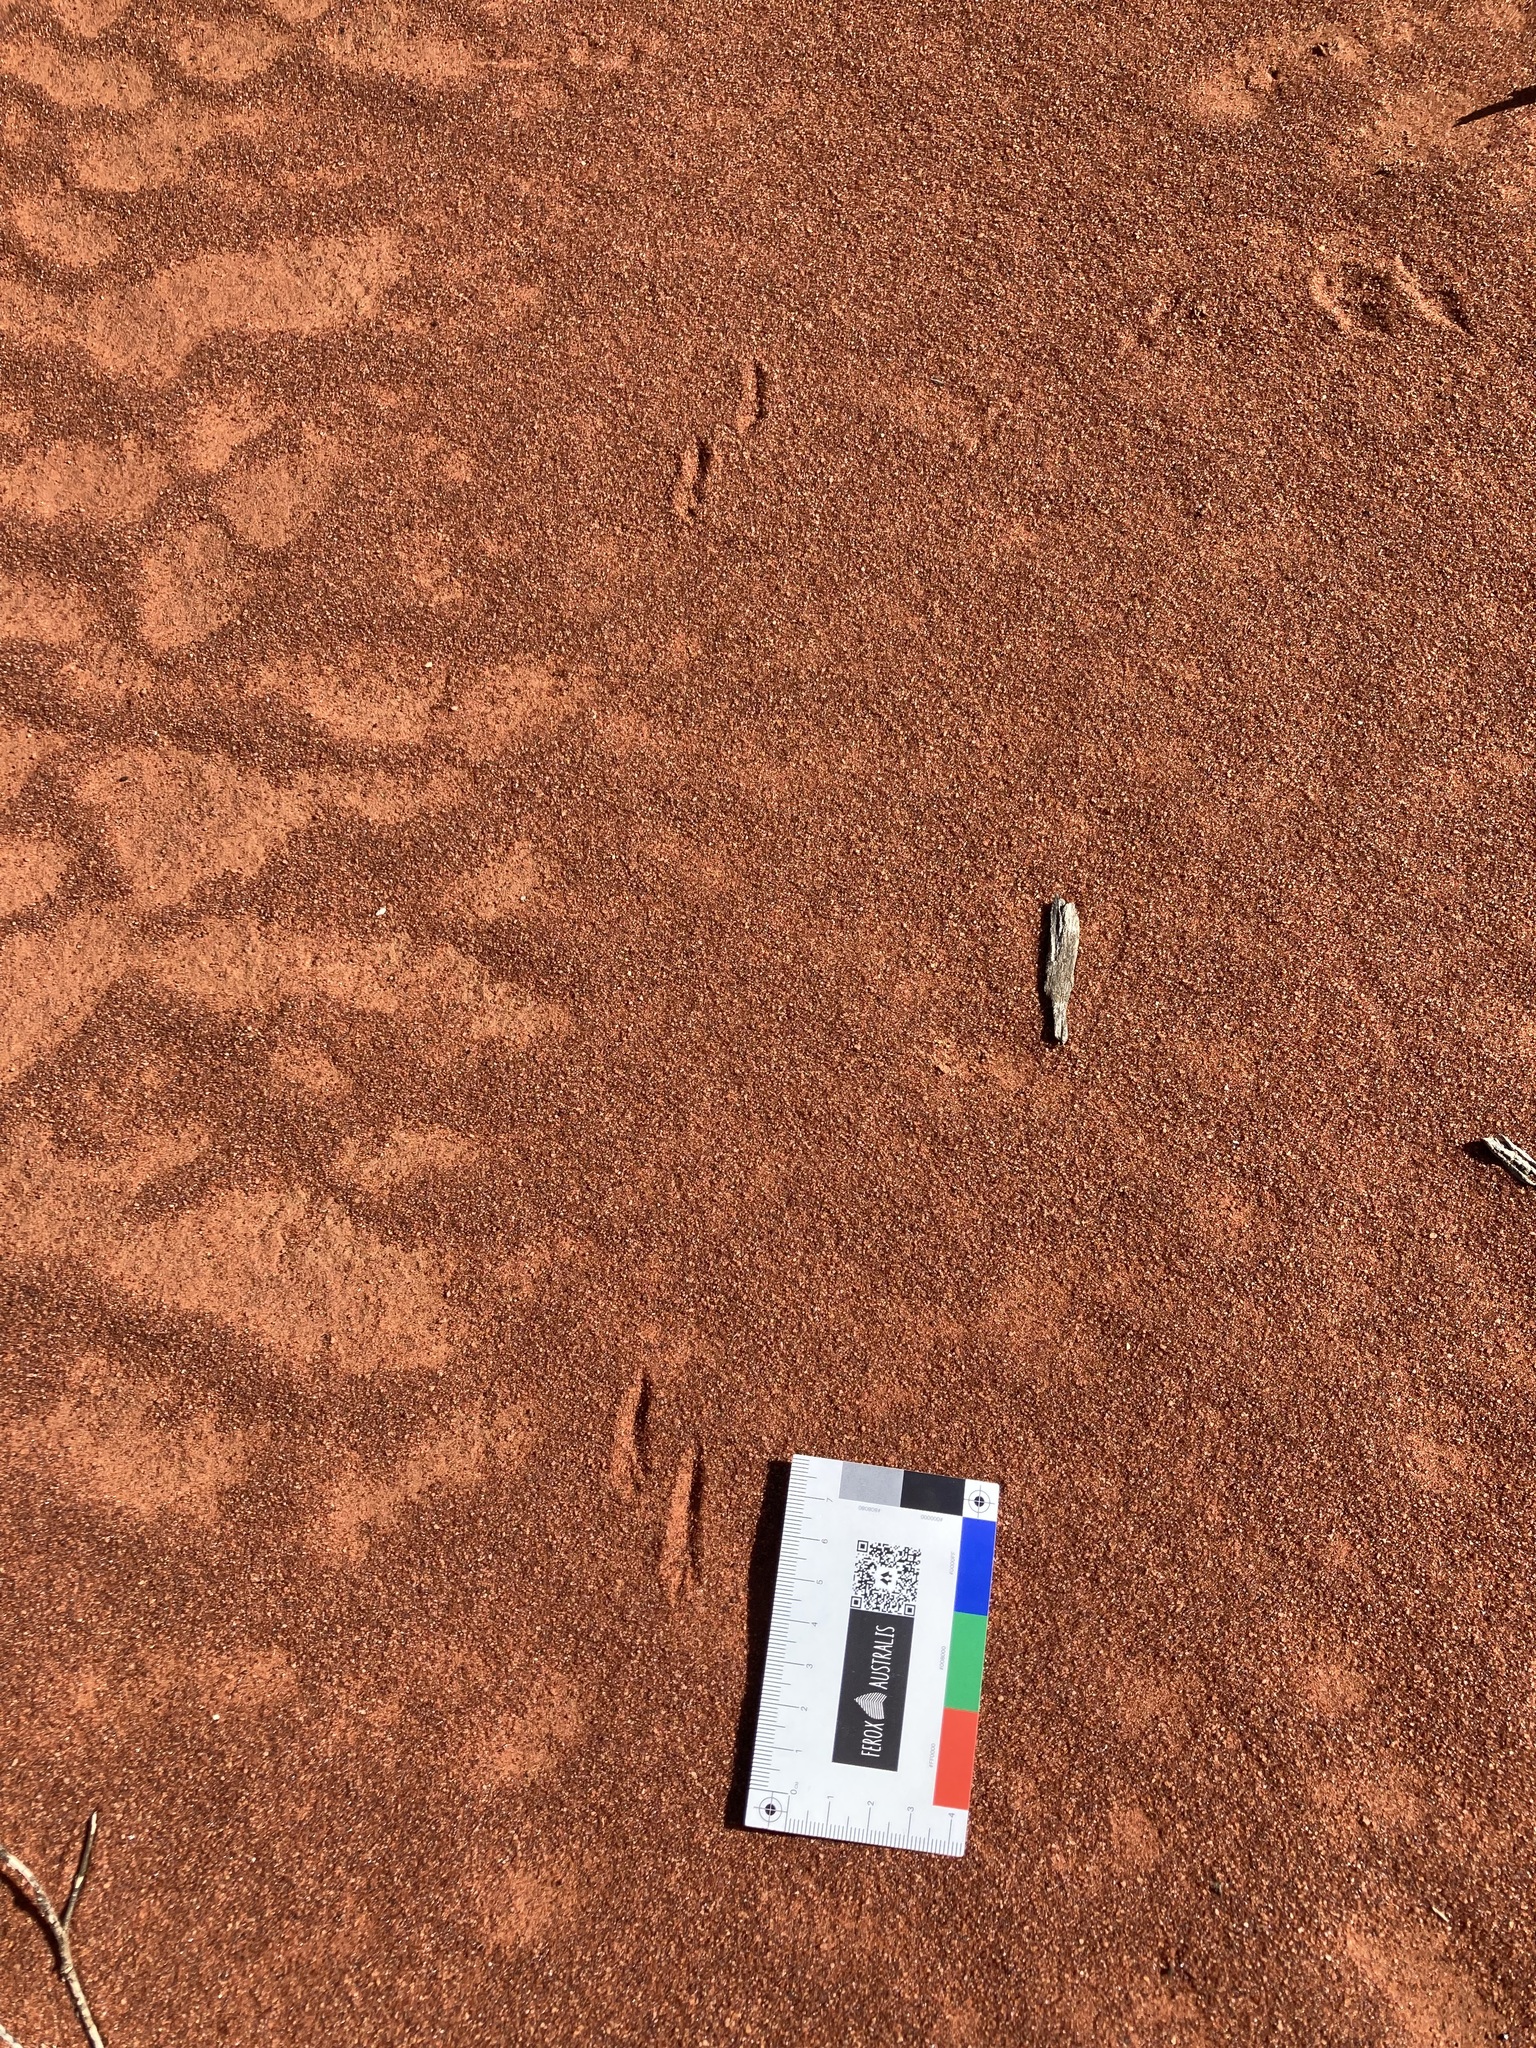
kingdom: Animalia
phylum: Chordata
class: Mammalia
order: Rodentia
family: Muridae
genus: Notomys
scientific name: Notomys alexis
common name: Spinifex hopping mouse
